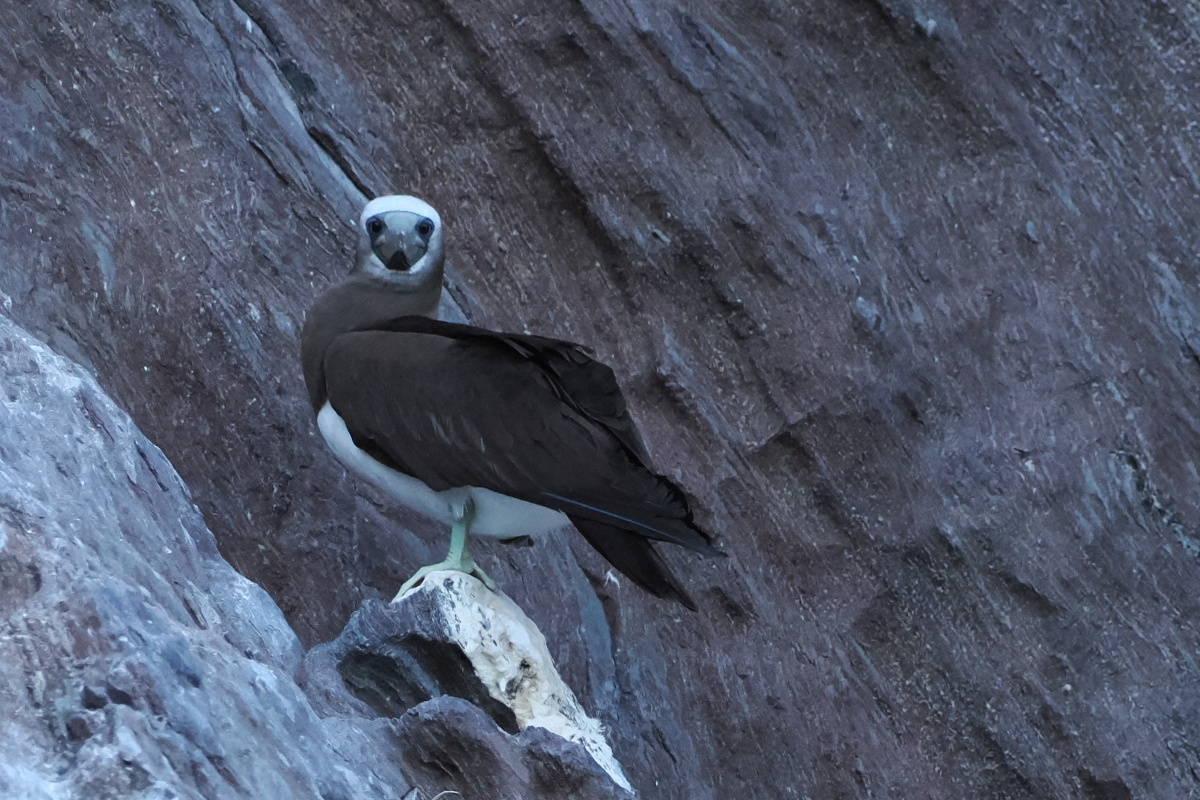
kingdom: Animalia
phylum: Chordata
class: Aves
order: Suliformes
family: Sulidae
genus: Sula
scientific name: Sula leucogaster
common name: Brown booby
